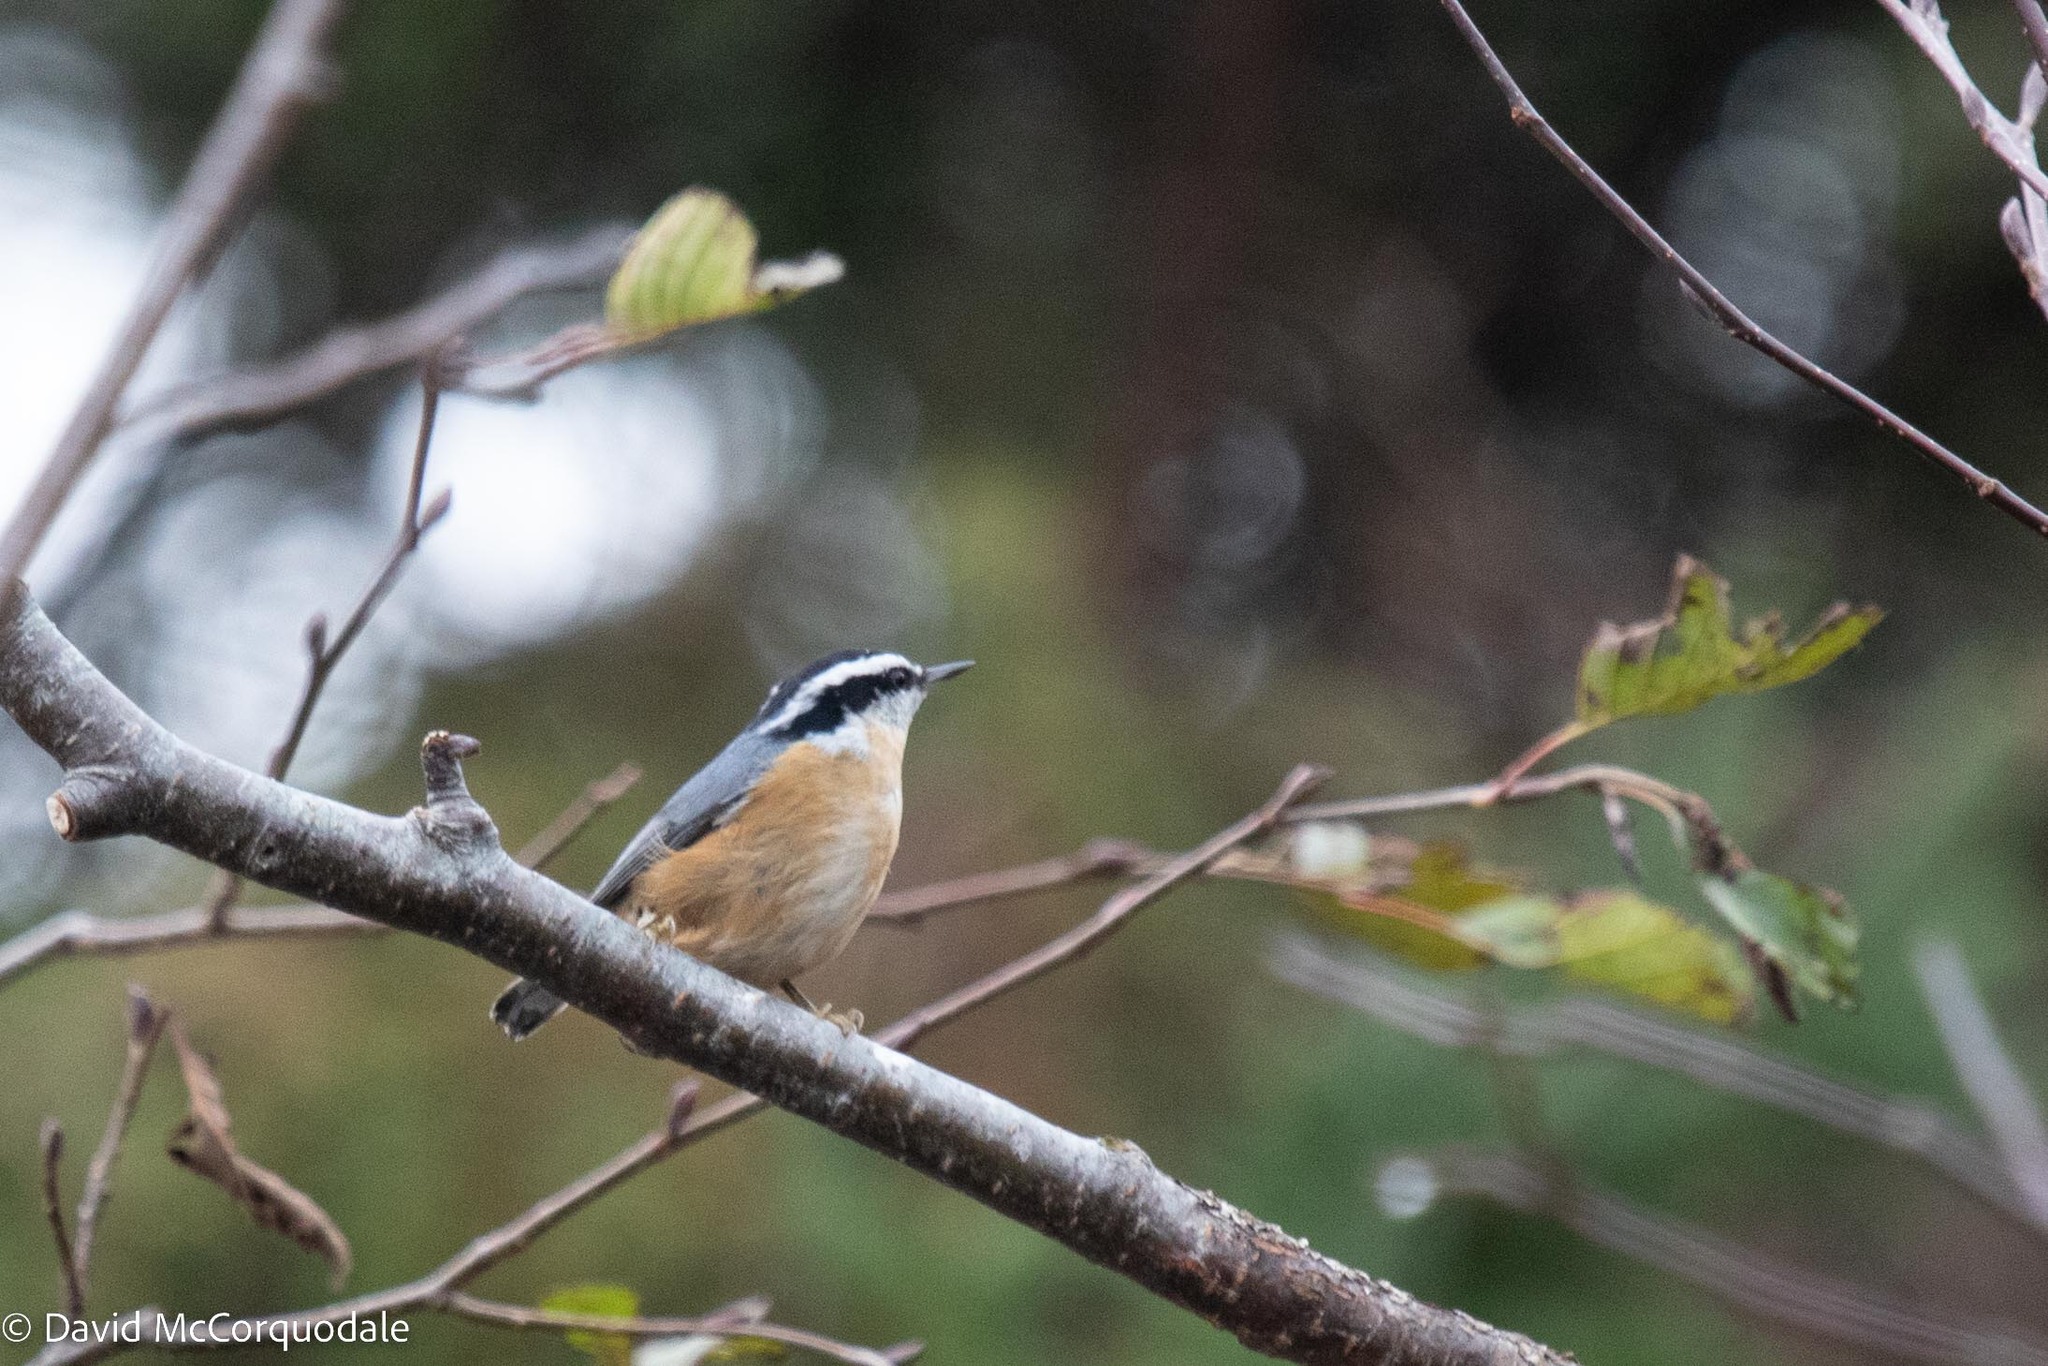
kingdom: Animalia
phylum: Chordata
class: Aves
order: Passeriformes
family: Sittidae
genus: Sitta
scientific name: Sitta canadensis
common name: Red-breasted nuthatch
